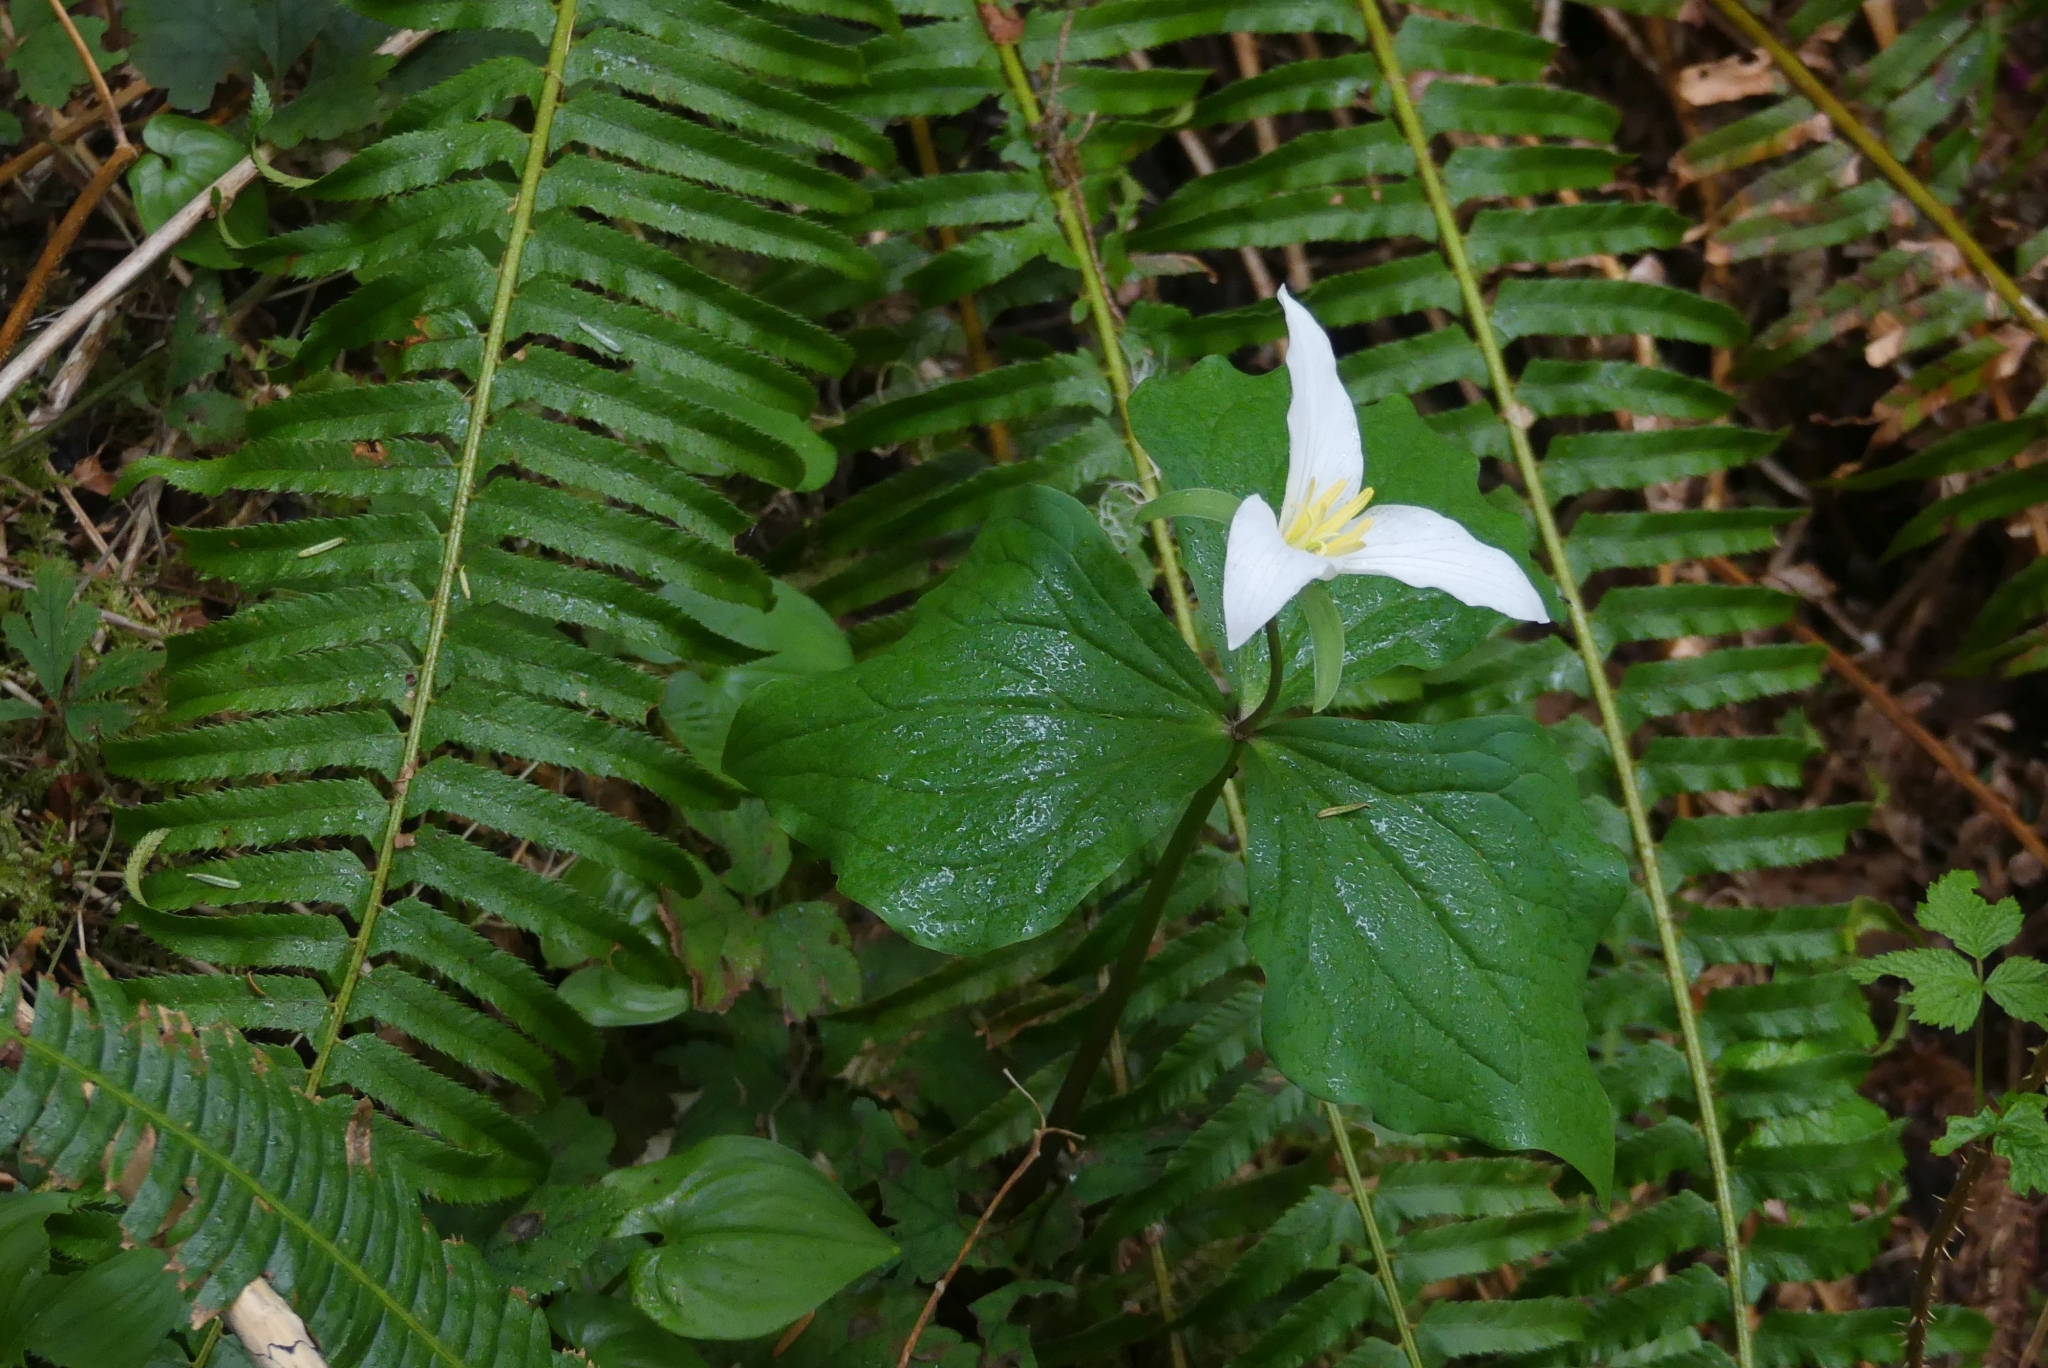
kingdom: Plantae
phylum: Tracheophyta
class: Liliopsida
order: Liliales
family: Melanthiaceae
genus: Trillium
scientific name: Trillium ovatum
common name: Pacific trillium
